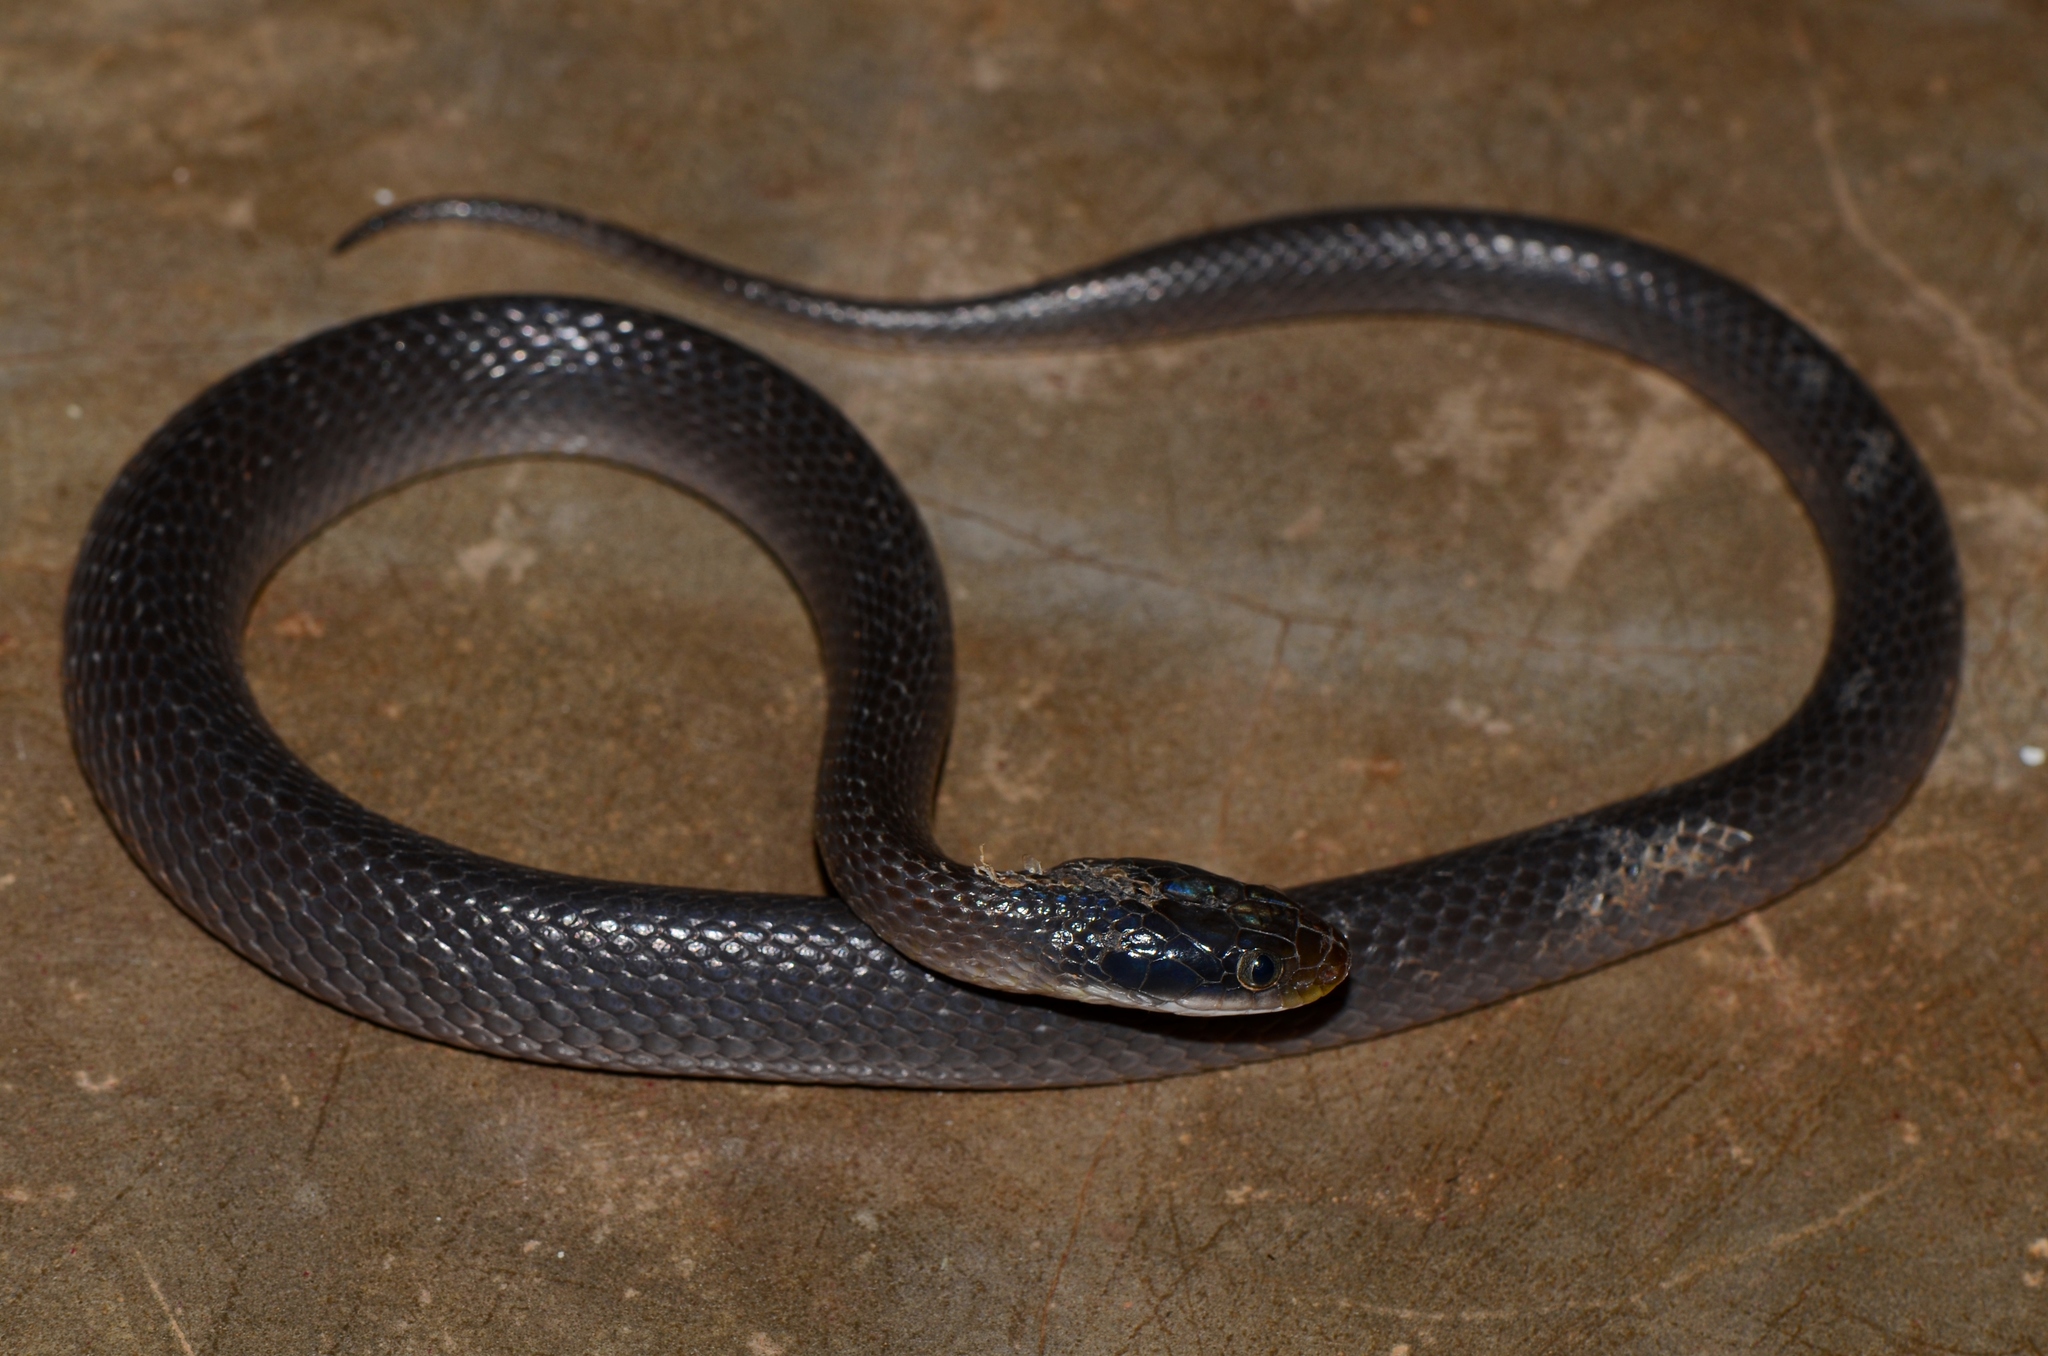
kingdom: Animalia
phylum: Chordata
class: Squamata
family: Colubridae
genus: Crotaphopeltis
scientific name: Crotaphopeltis hotamboeia
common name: Red-lipped snake
